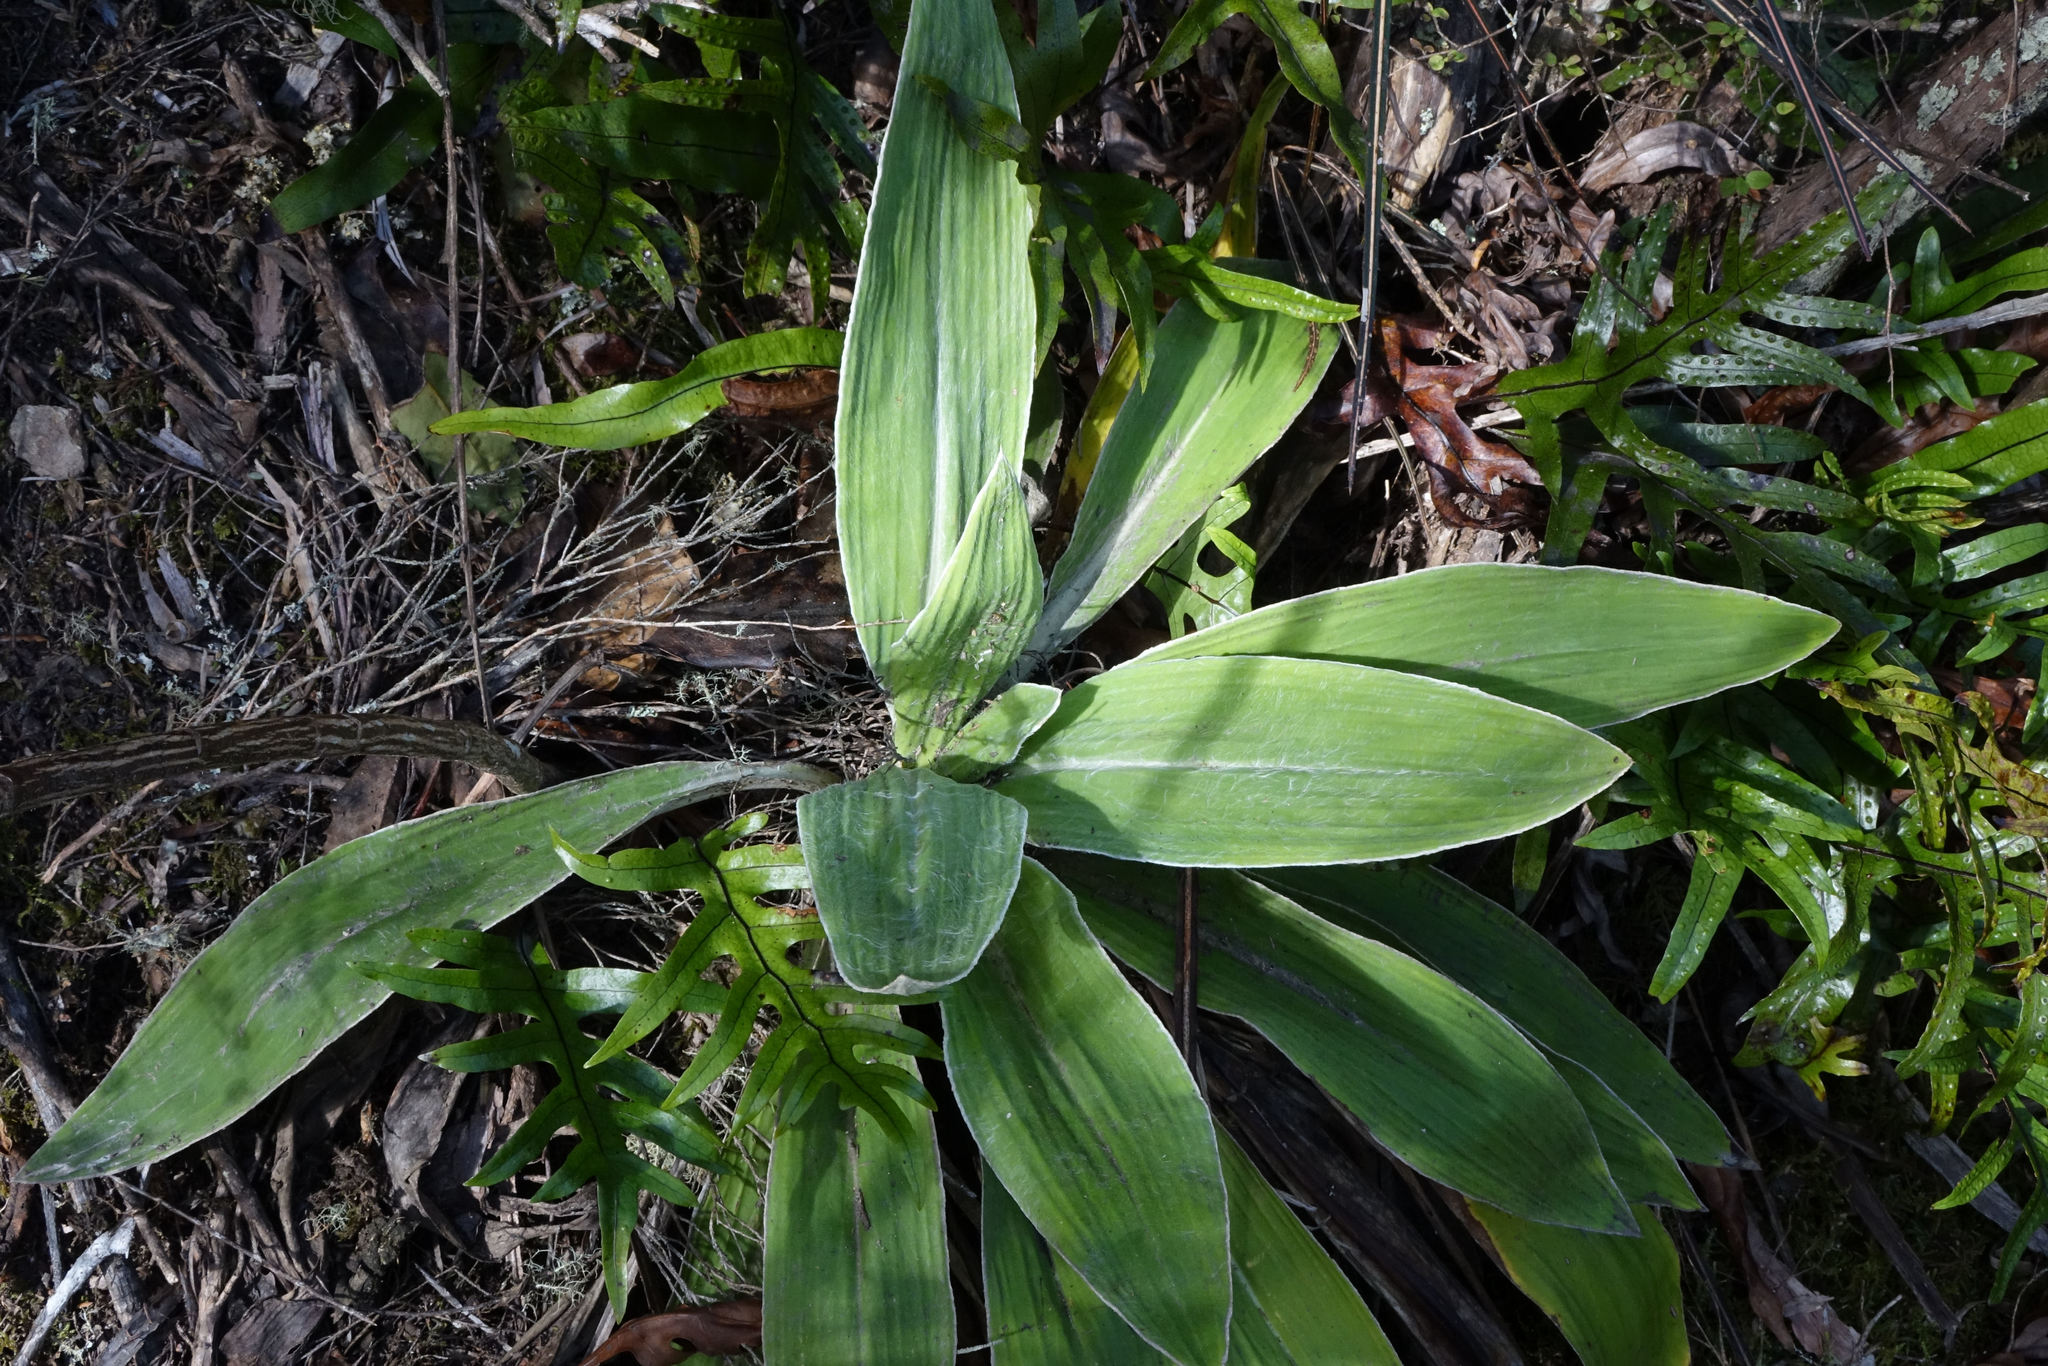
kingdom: Plantae
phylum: Tracheophyta
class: Magnoliopsida
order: Asterales
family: Asteraceae
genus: Celmisia
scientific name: Celmisia hookeri
